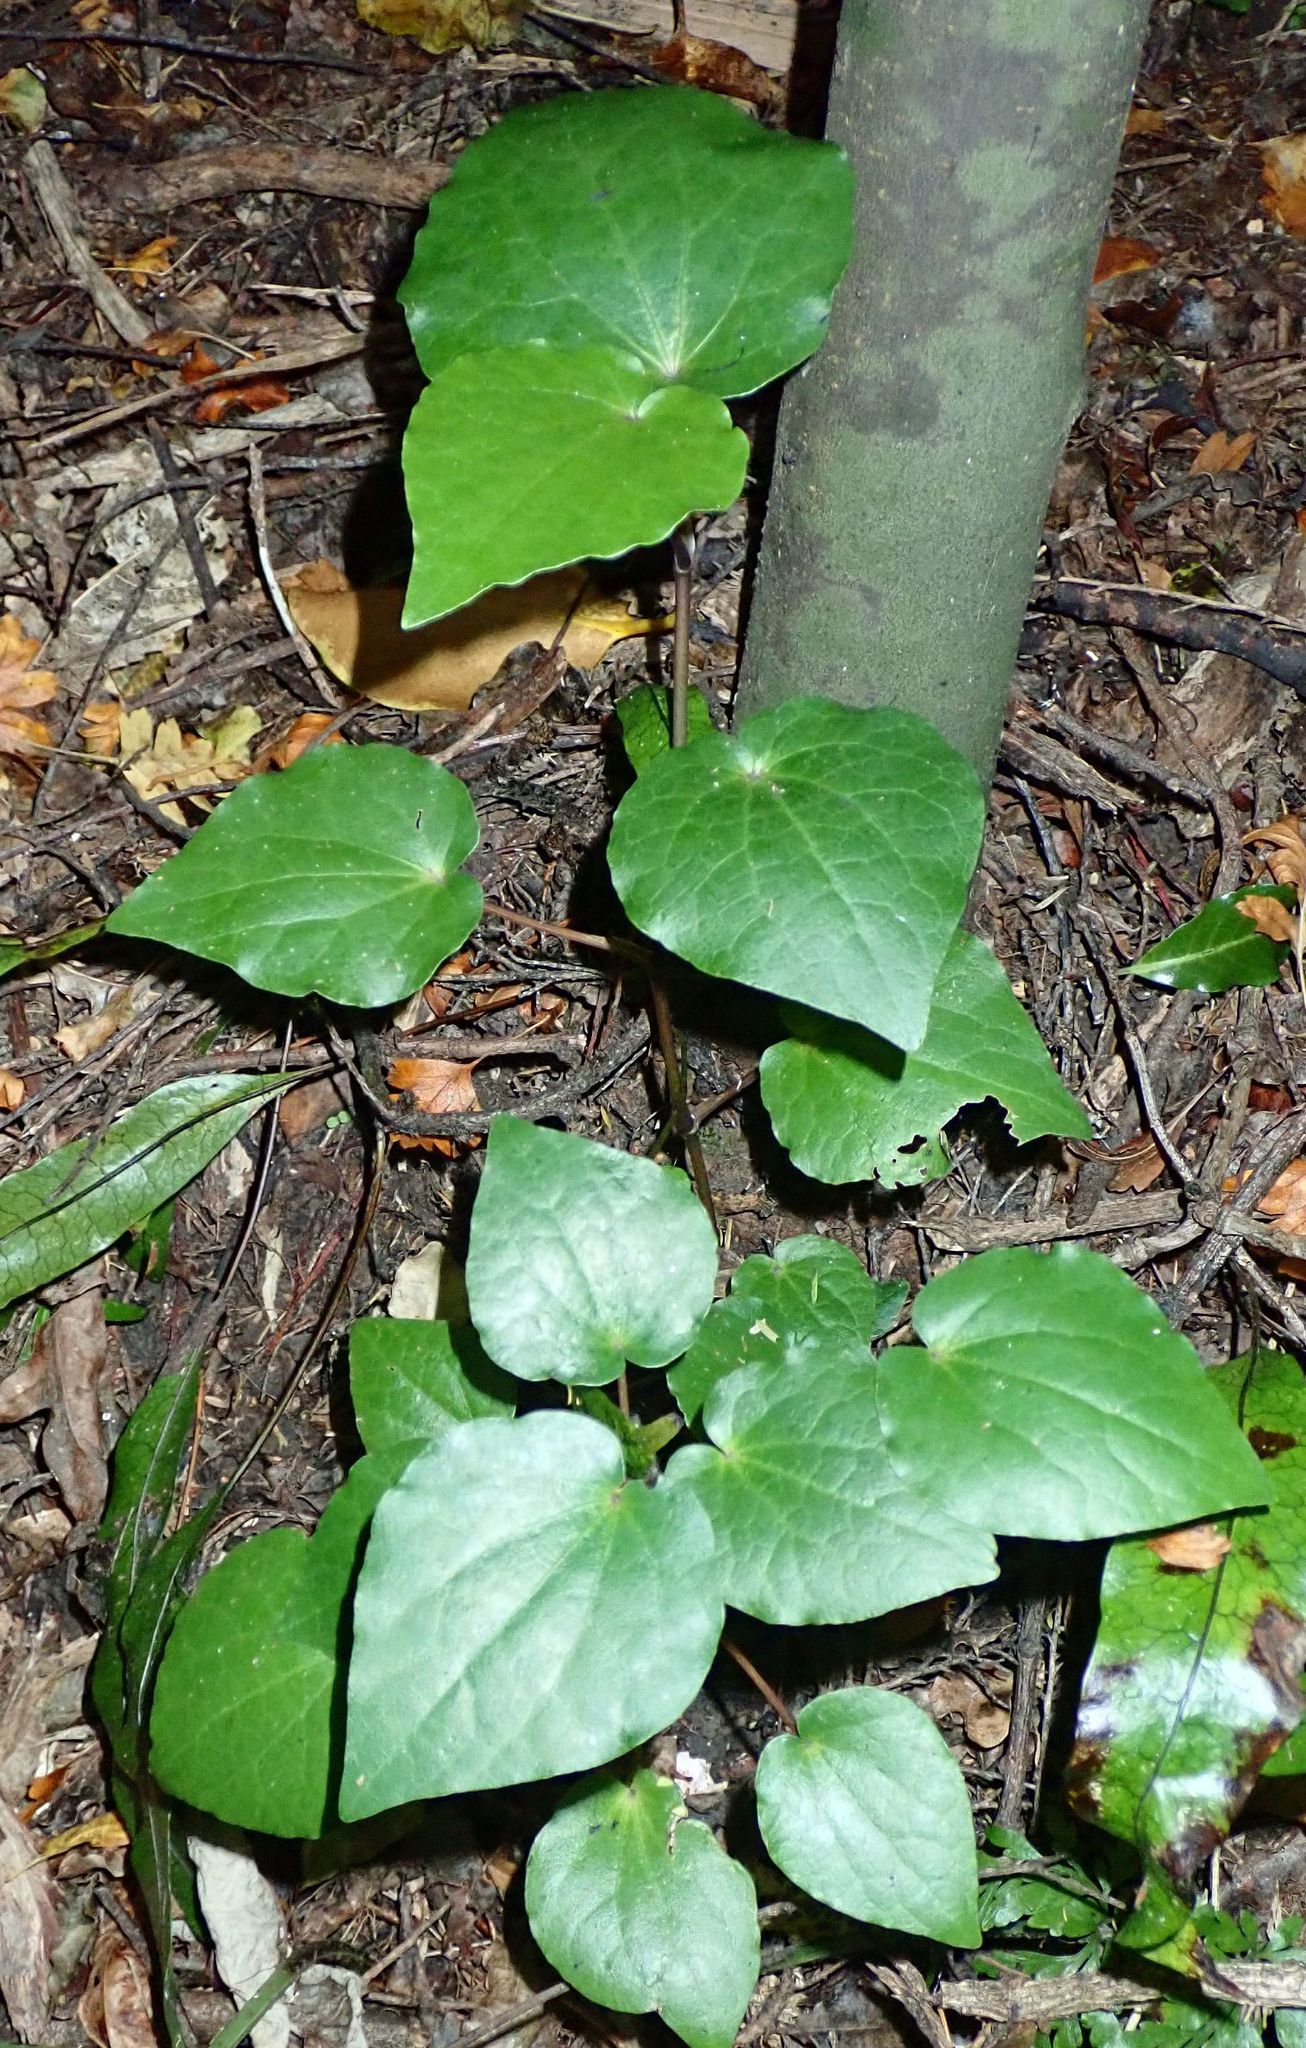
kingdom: Plantae
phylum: Tracheophyta
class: Magnoliopsida
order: Piperales
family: Piperaceae
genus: Macropiper
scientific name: Macropiper excelsum
